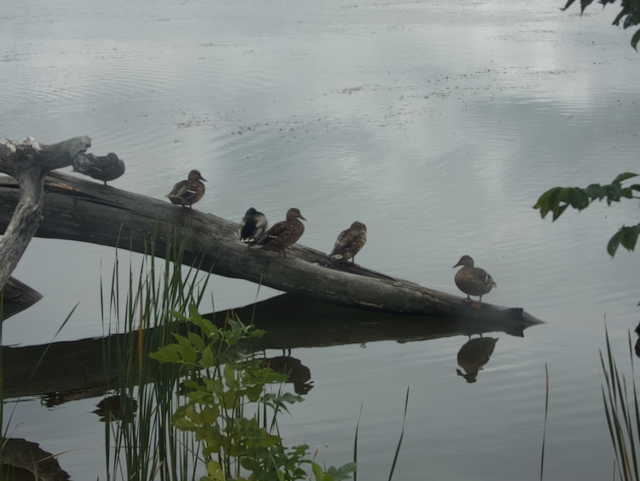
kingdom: Animalia
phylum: Chordata
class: Aves
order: Anseriformes
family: Anatidae
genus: Anas
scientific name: Anas platyrhynchos
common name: Mallard
